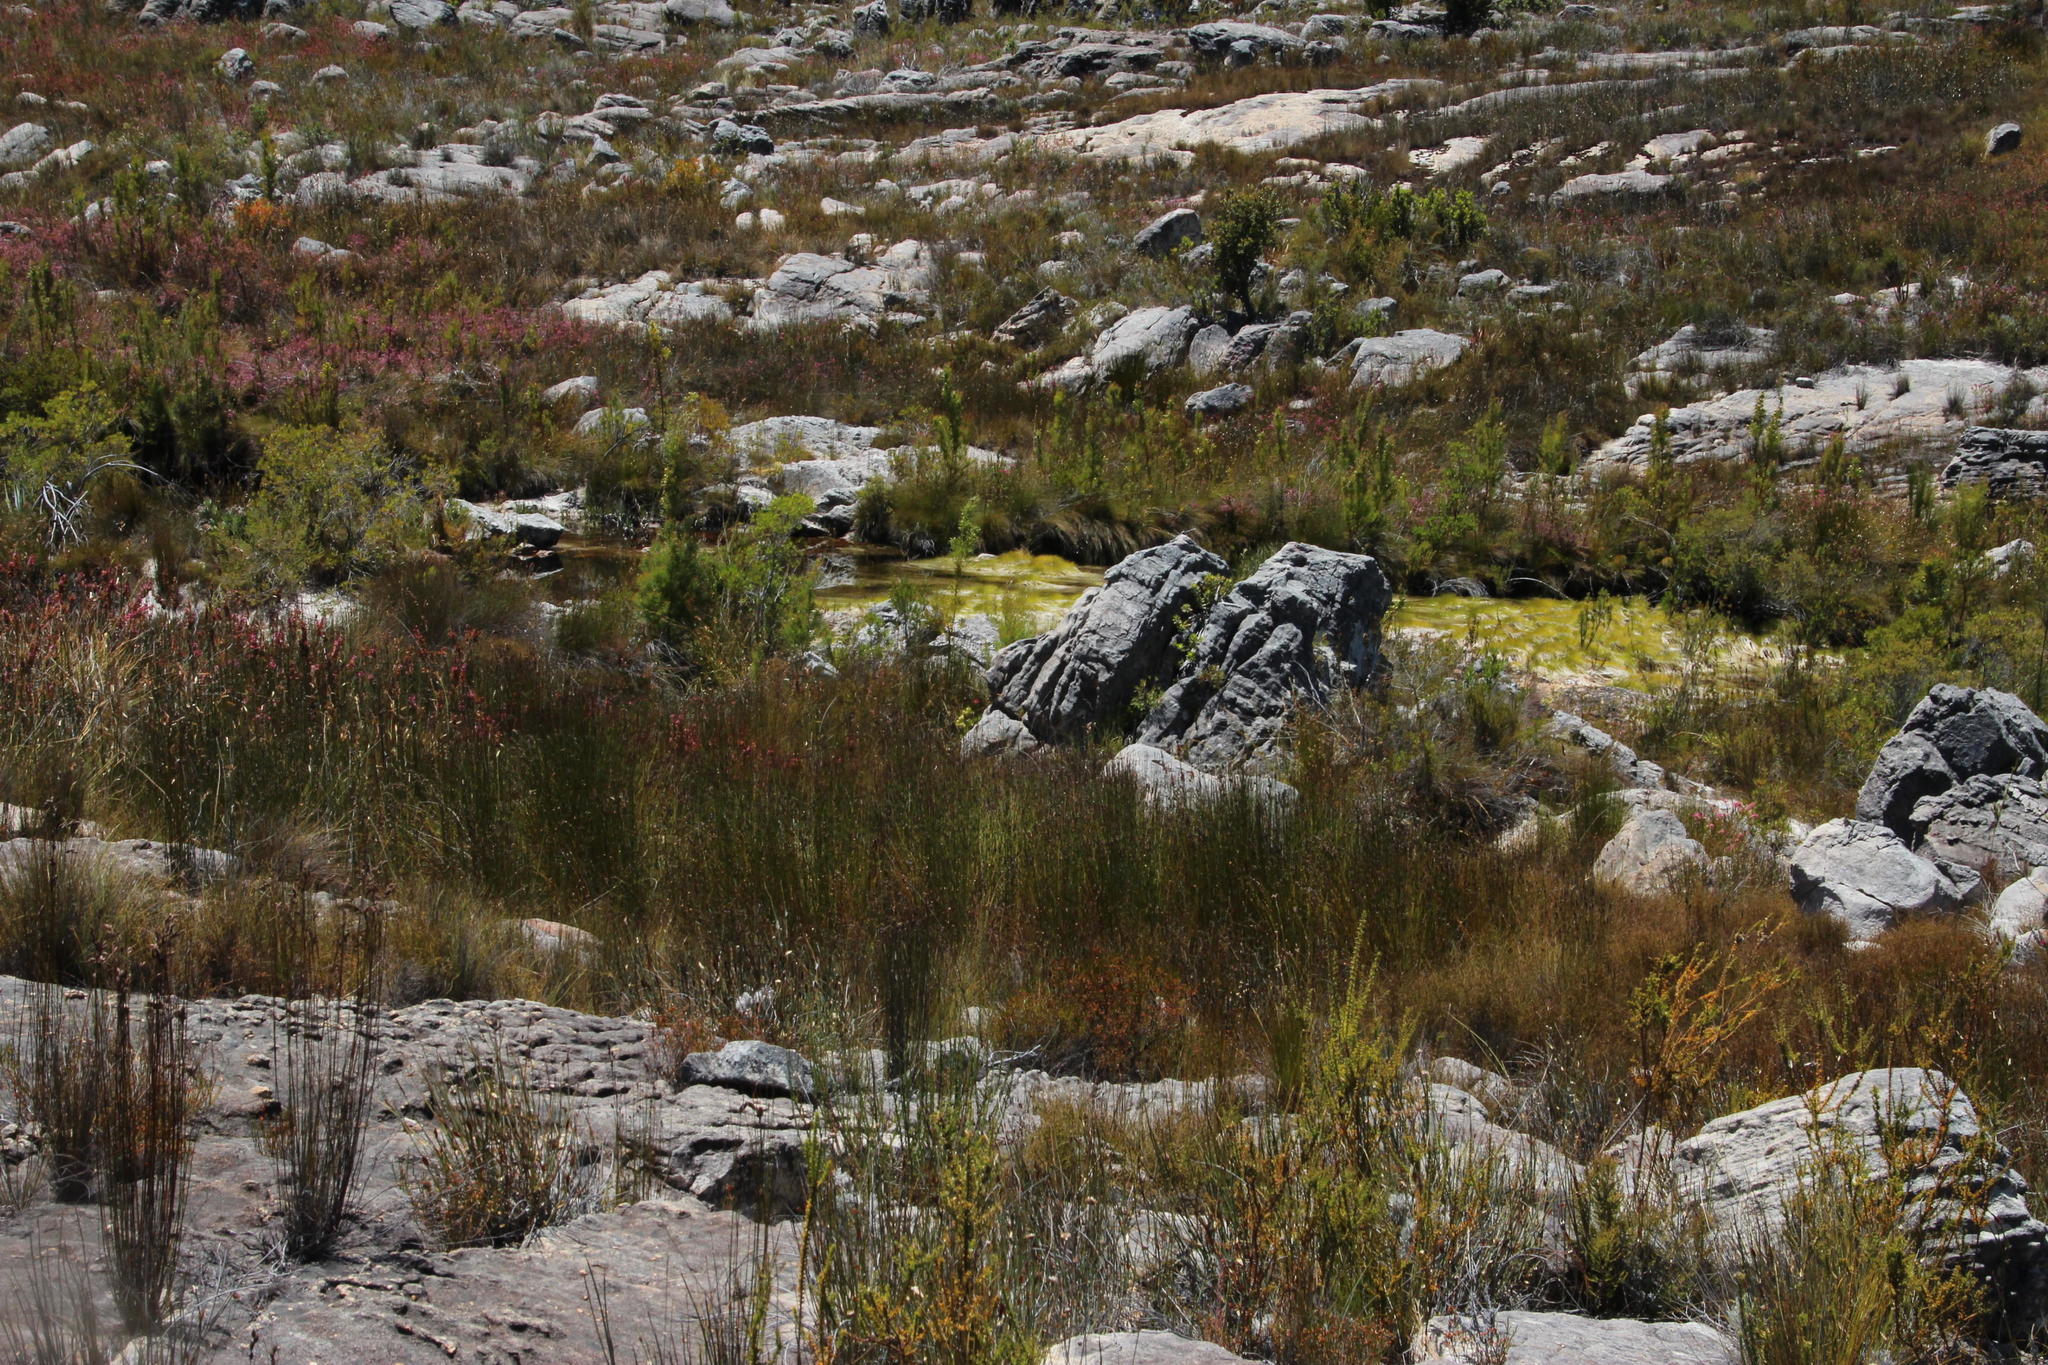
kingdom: Plantae
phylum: Tracheophyta
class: Liliopsida
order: Poales
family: Cyperaceae
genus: Isolepis
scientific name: Isolepis digitata
